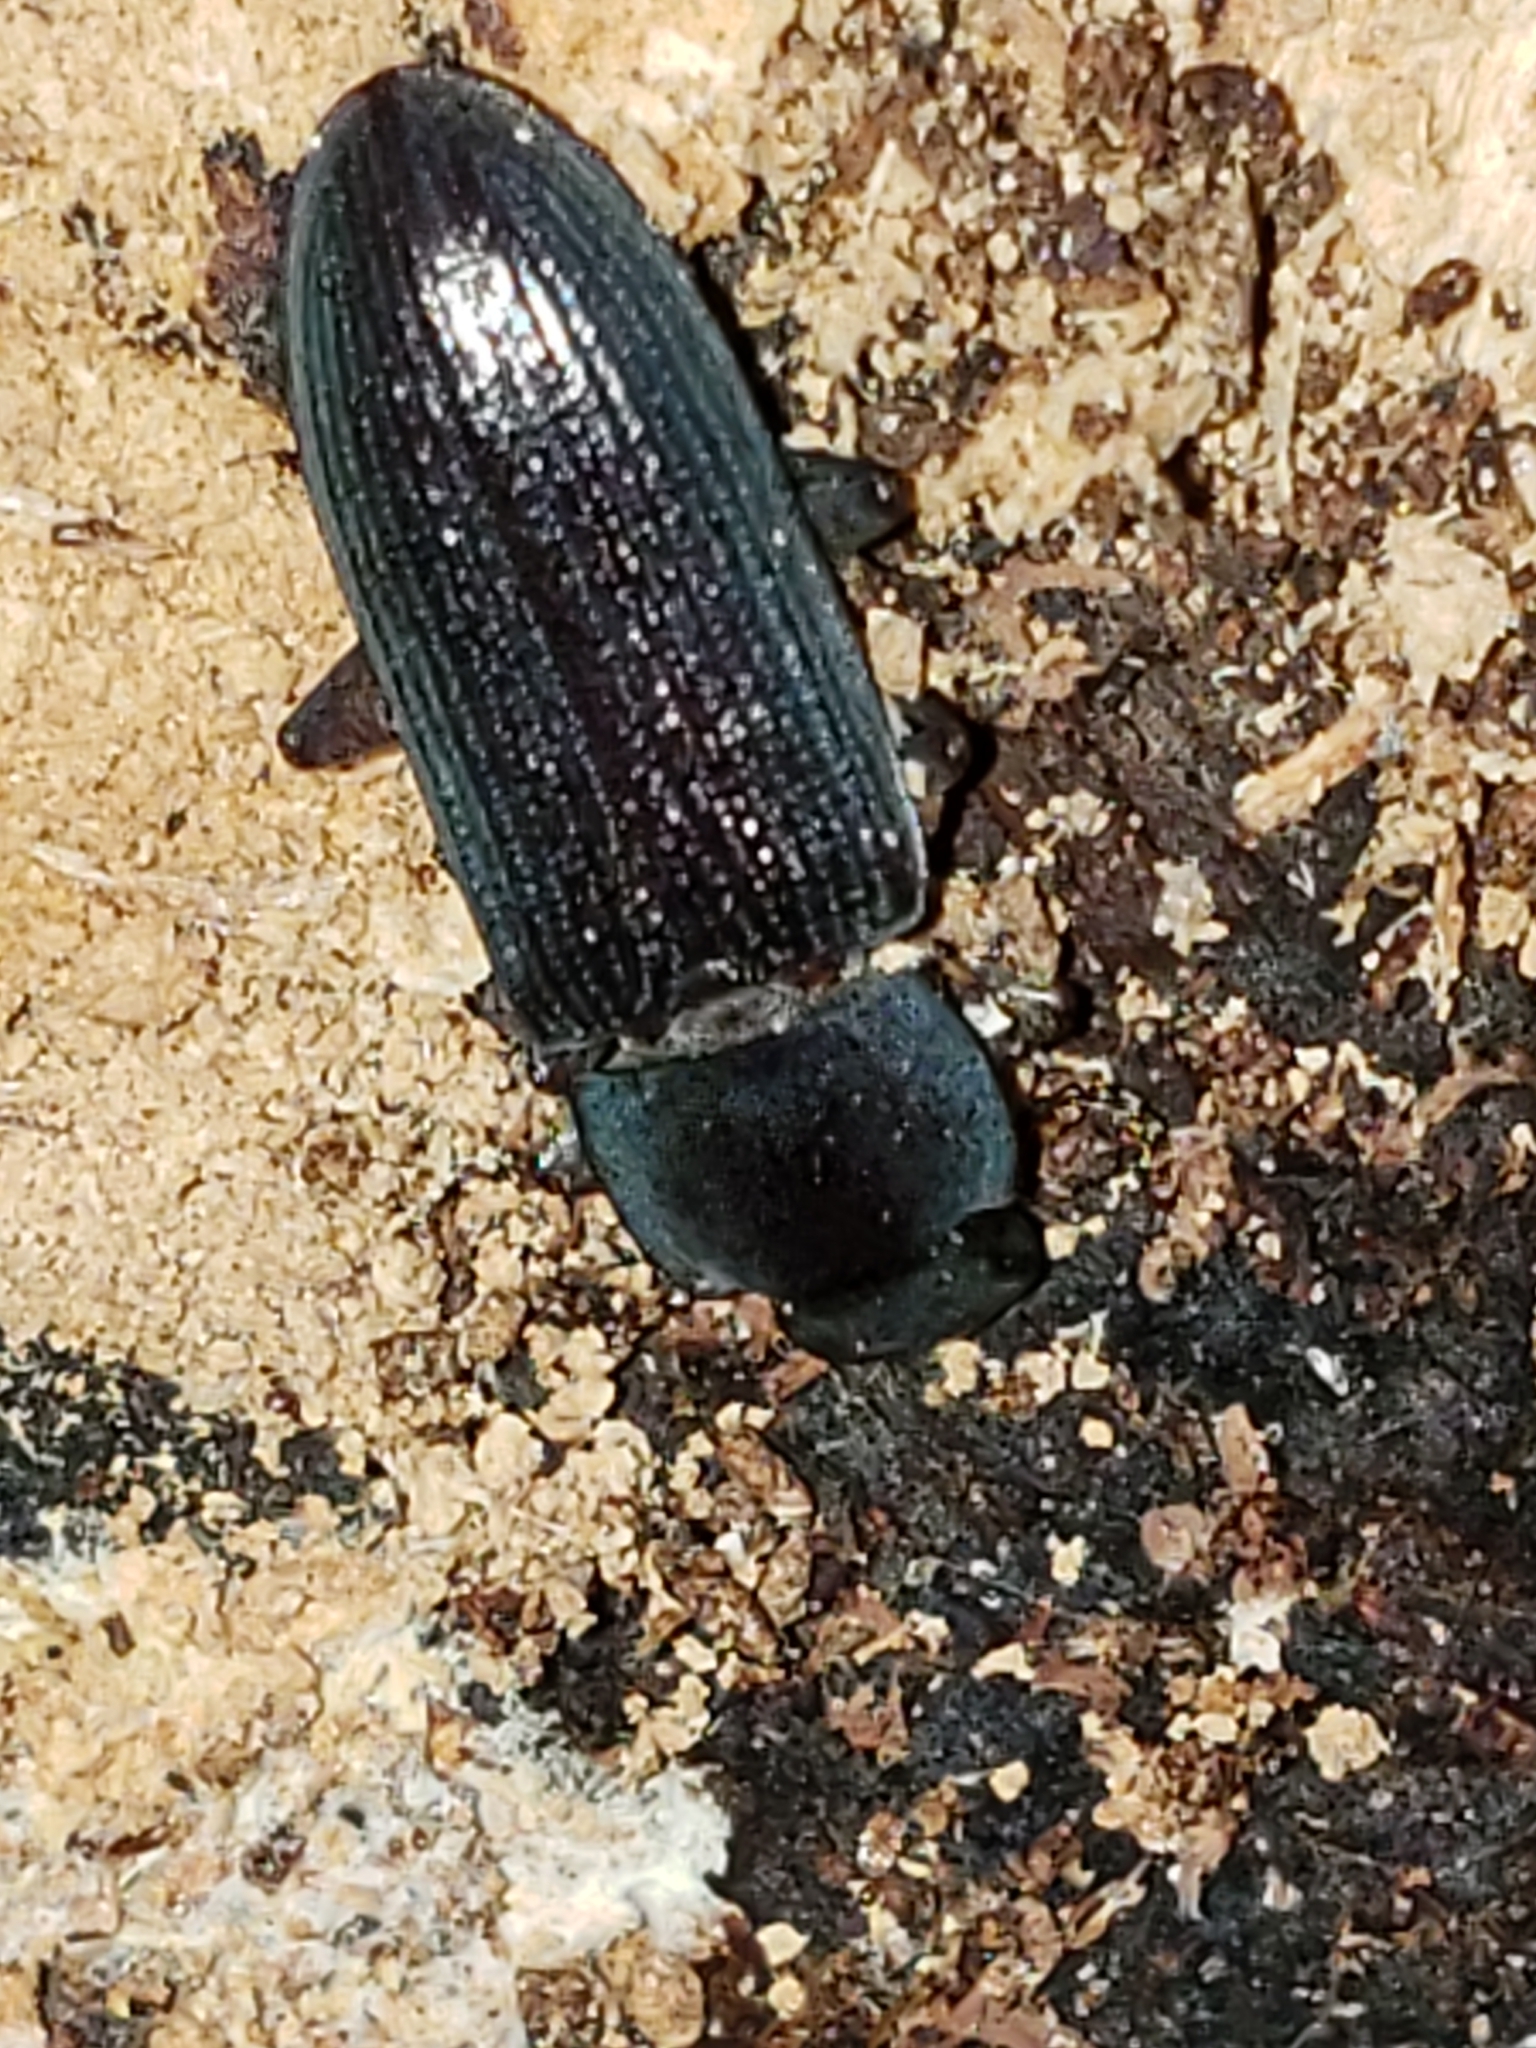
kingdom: Animalia
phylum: Arthropoda
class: Insecta
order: Coleoptera
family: Tenebrionidae
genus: Idiobates
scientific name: Idiobates castaneus
